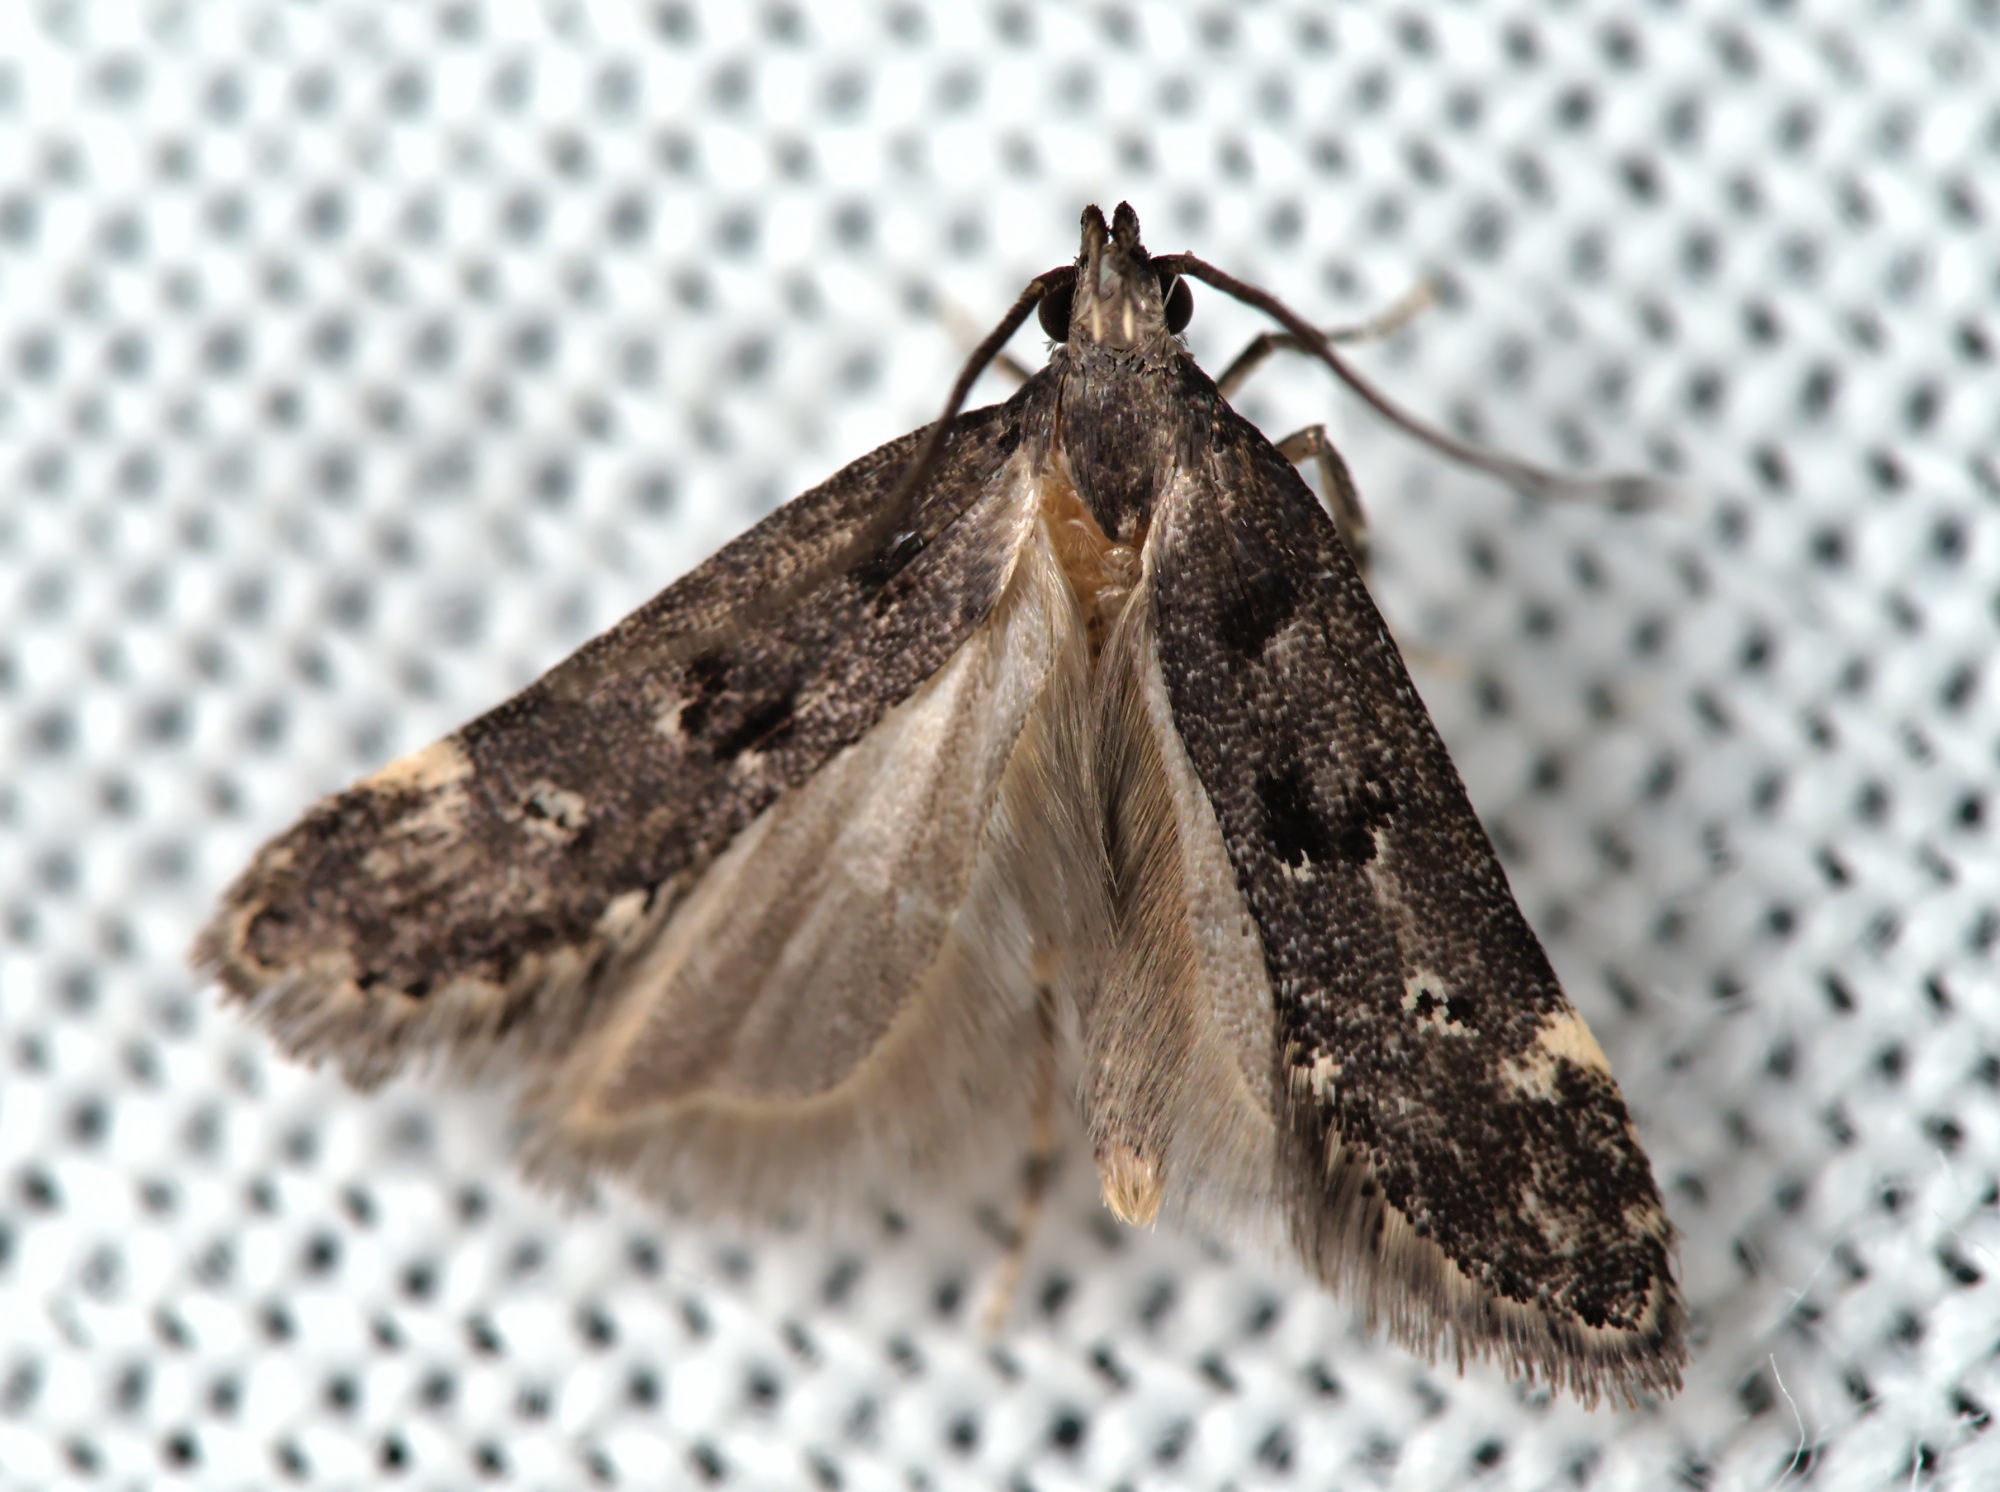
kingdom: Animalia
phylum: Arthropoda
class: Insecta
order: Lepidoptera
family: Gelechiidae
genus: Acanthophila
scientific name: Acanthophila alacella
